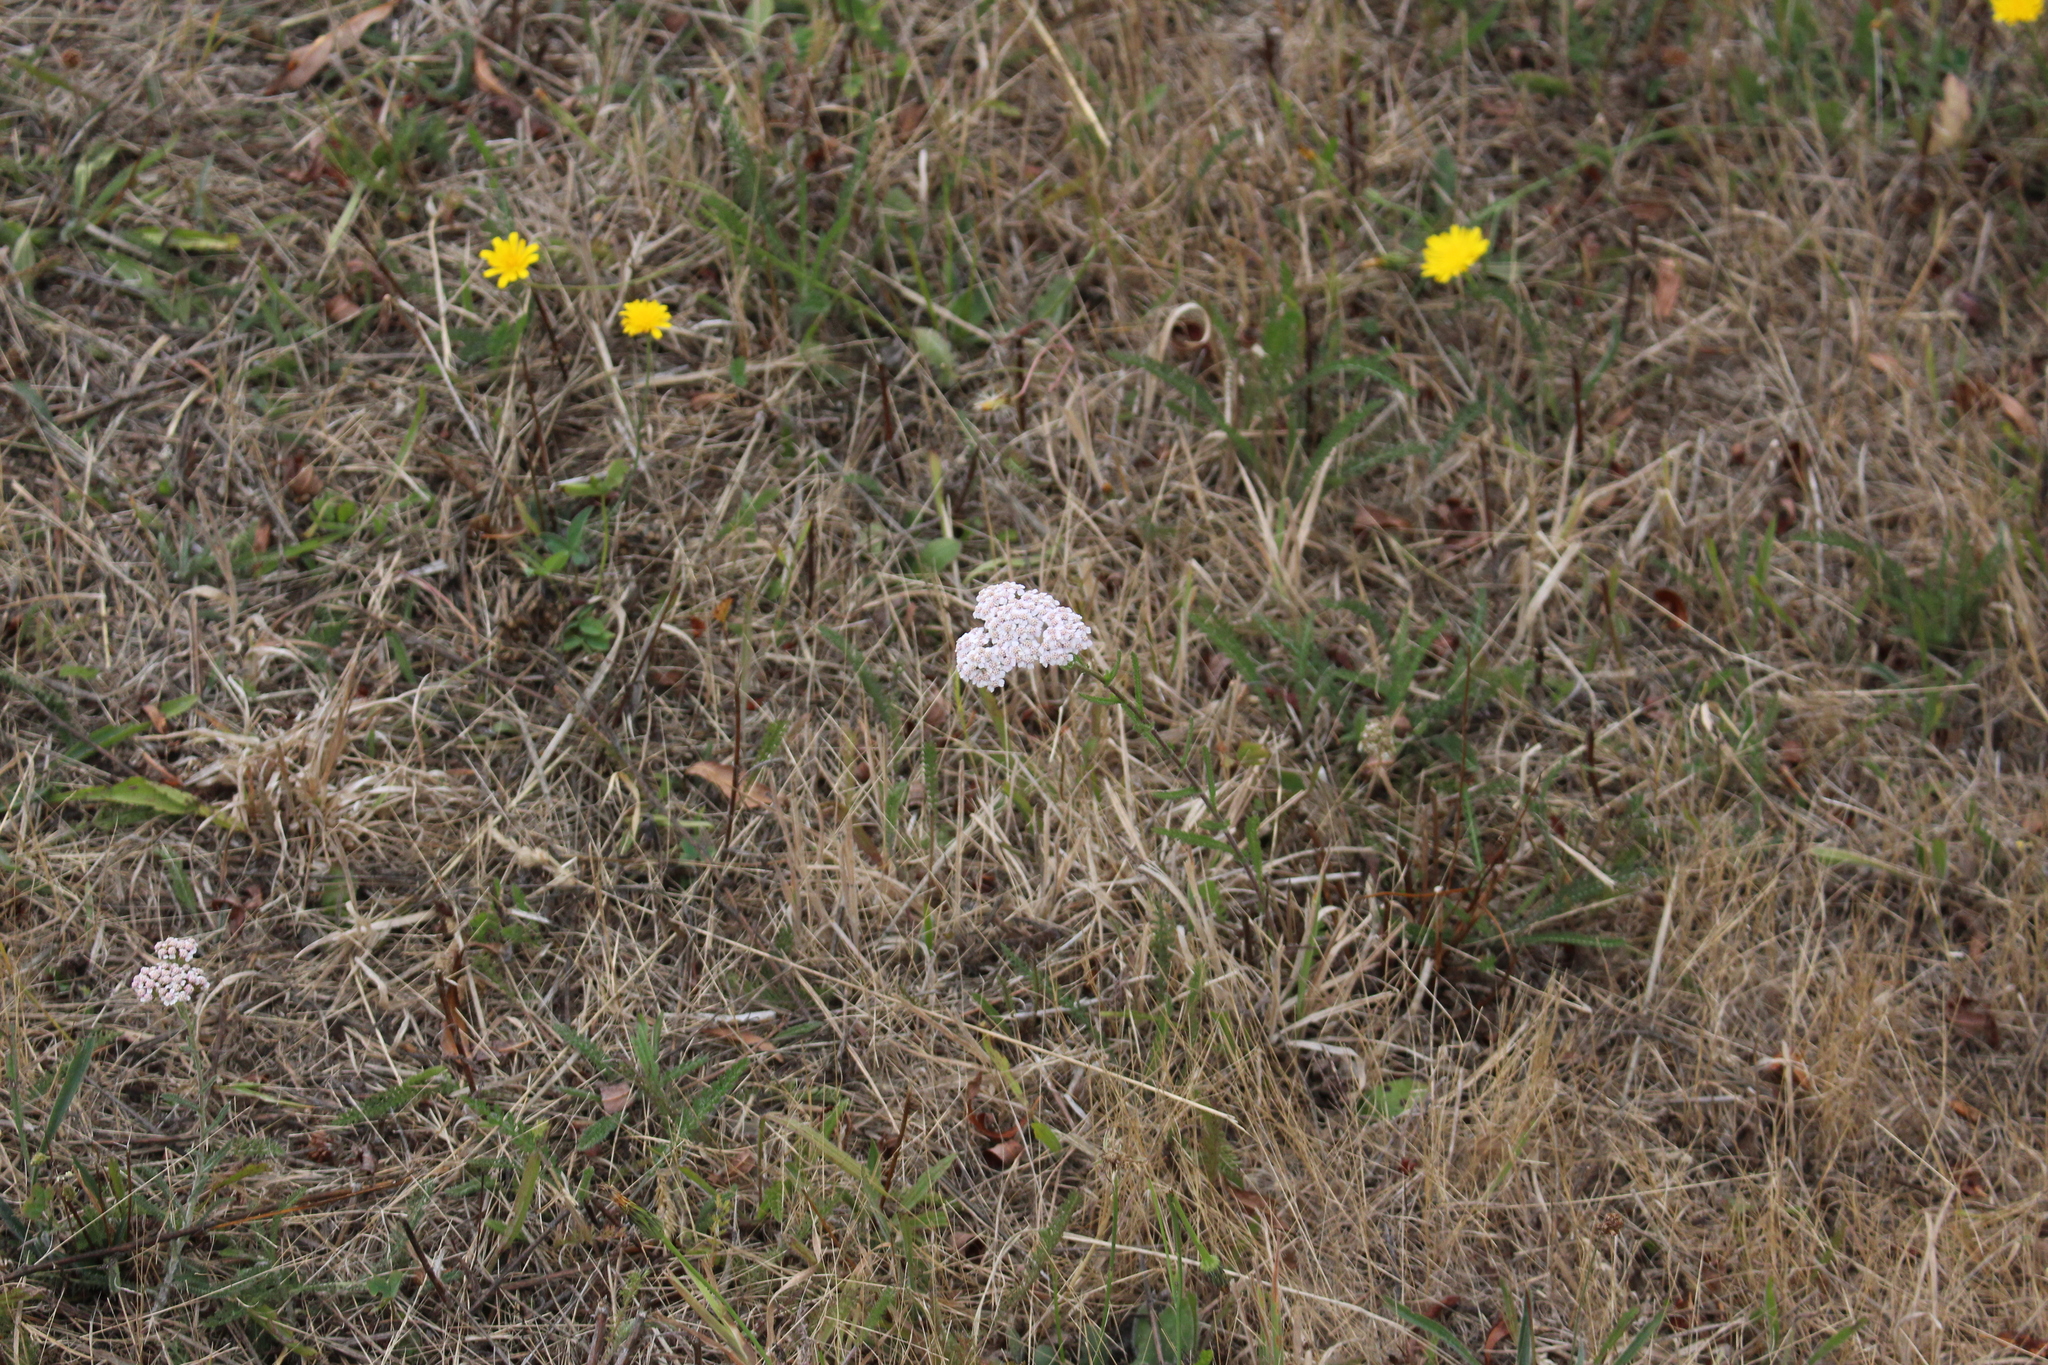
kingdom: Plantae
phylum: Tracheophyta
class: Magnoliopsida
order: Asterales
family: Asteraceae
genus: Achillea
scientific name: Achillea millefolium
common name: Yarrow
